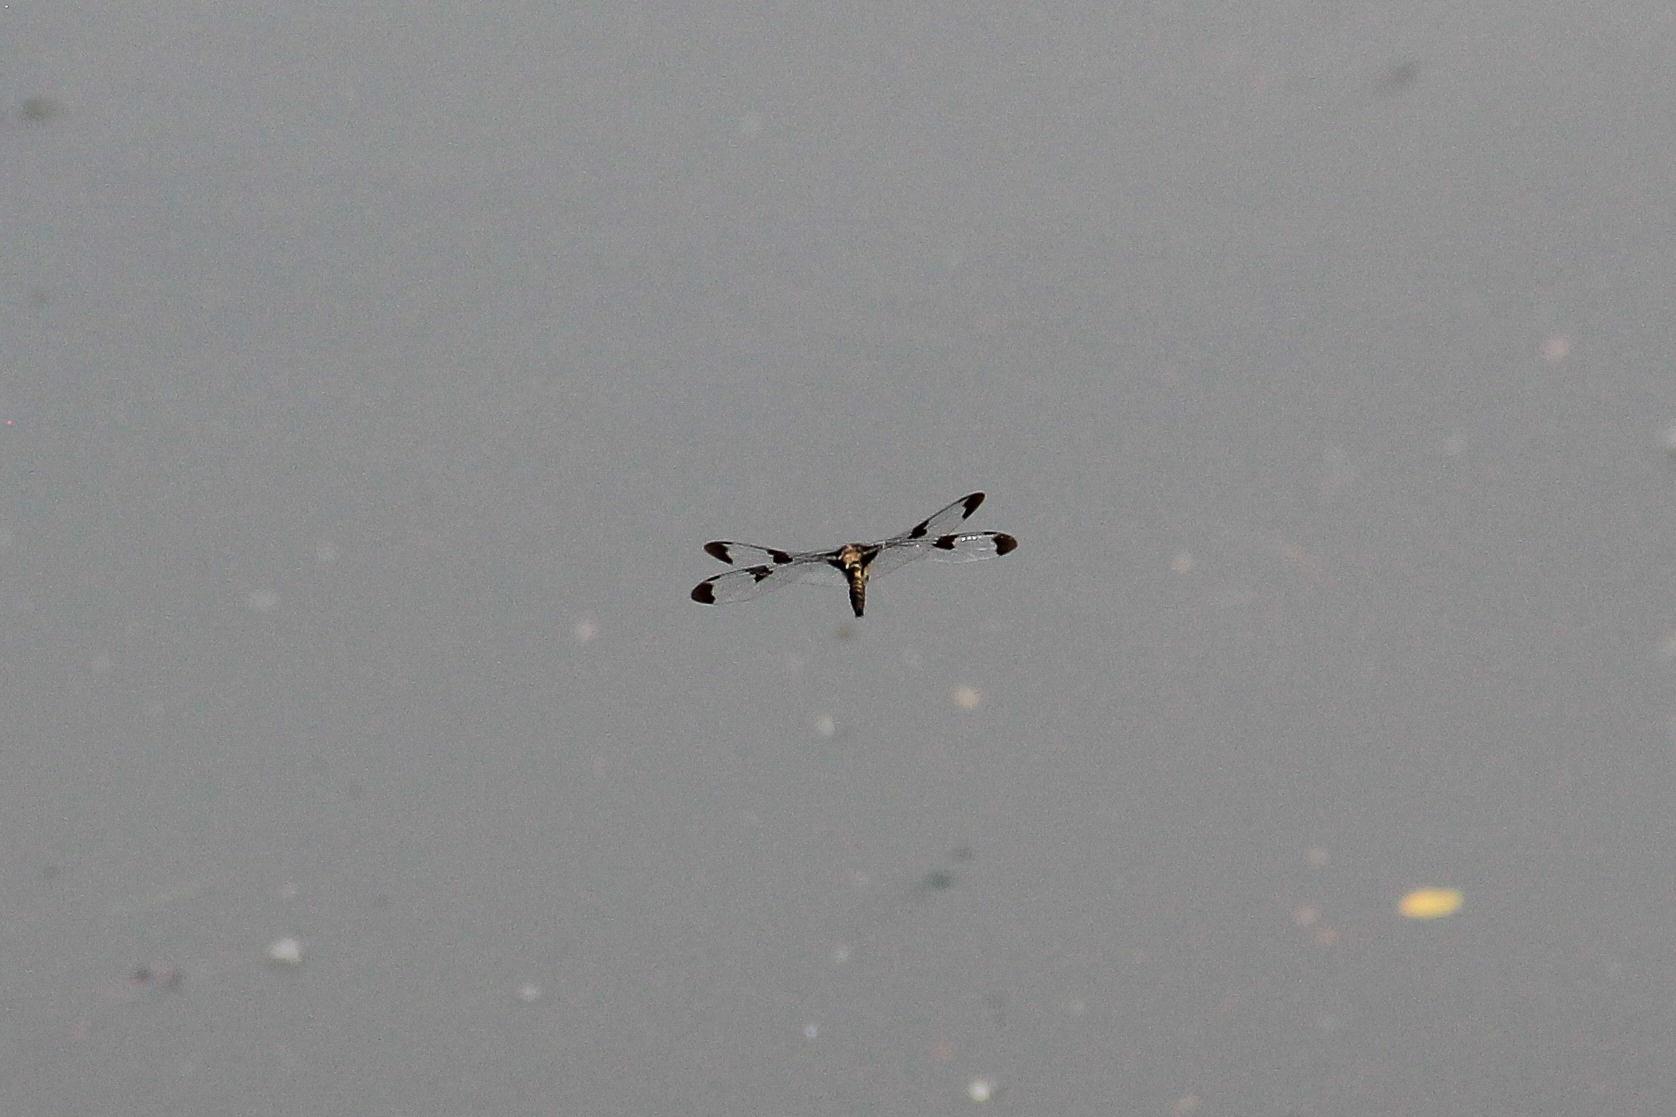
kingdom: Animalia
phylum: Arthropoda
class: Insecta
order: Odonata
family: Corduliidae
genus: Epitheca
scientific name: Epitheca princeps
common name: Prince baskettail
